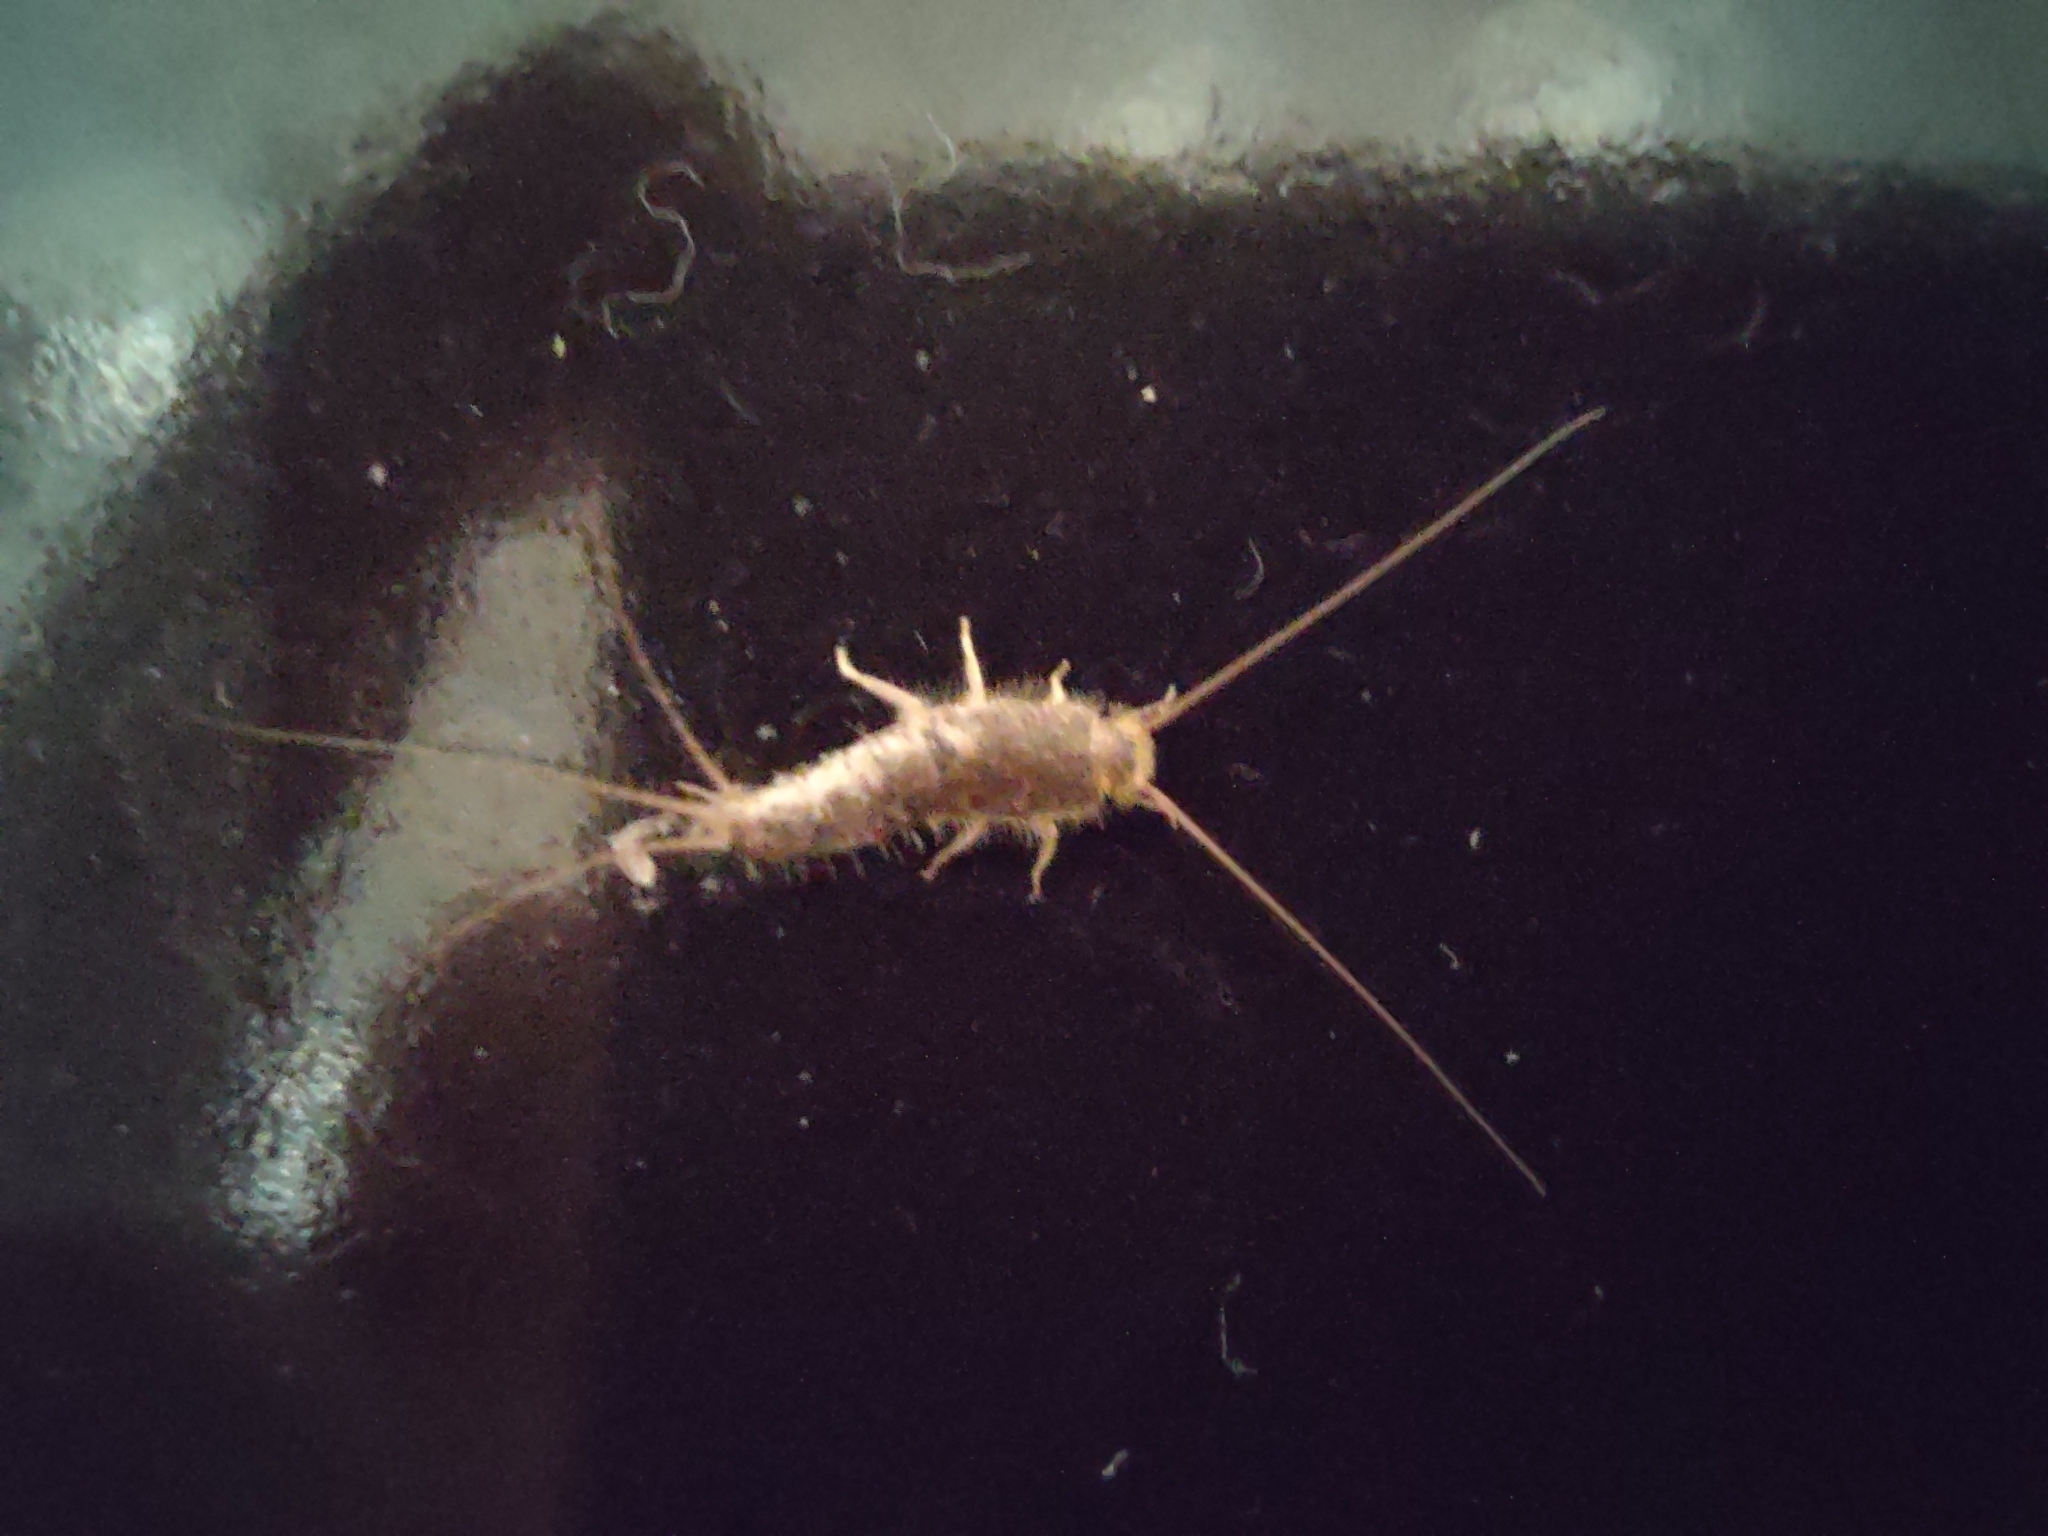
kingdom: Animalia
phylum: Arthropoda
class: Insecta
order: Zygentoma
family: Lepismatidae
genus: Ctenolepisma
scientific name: Ctenolepisma longicaudatum
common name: Silverfish
